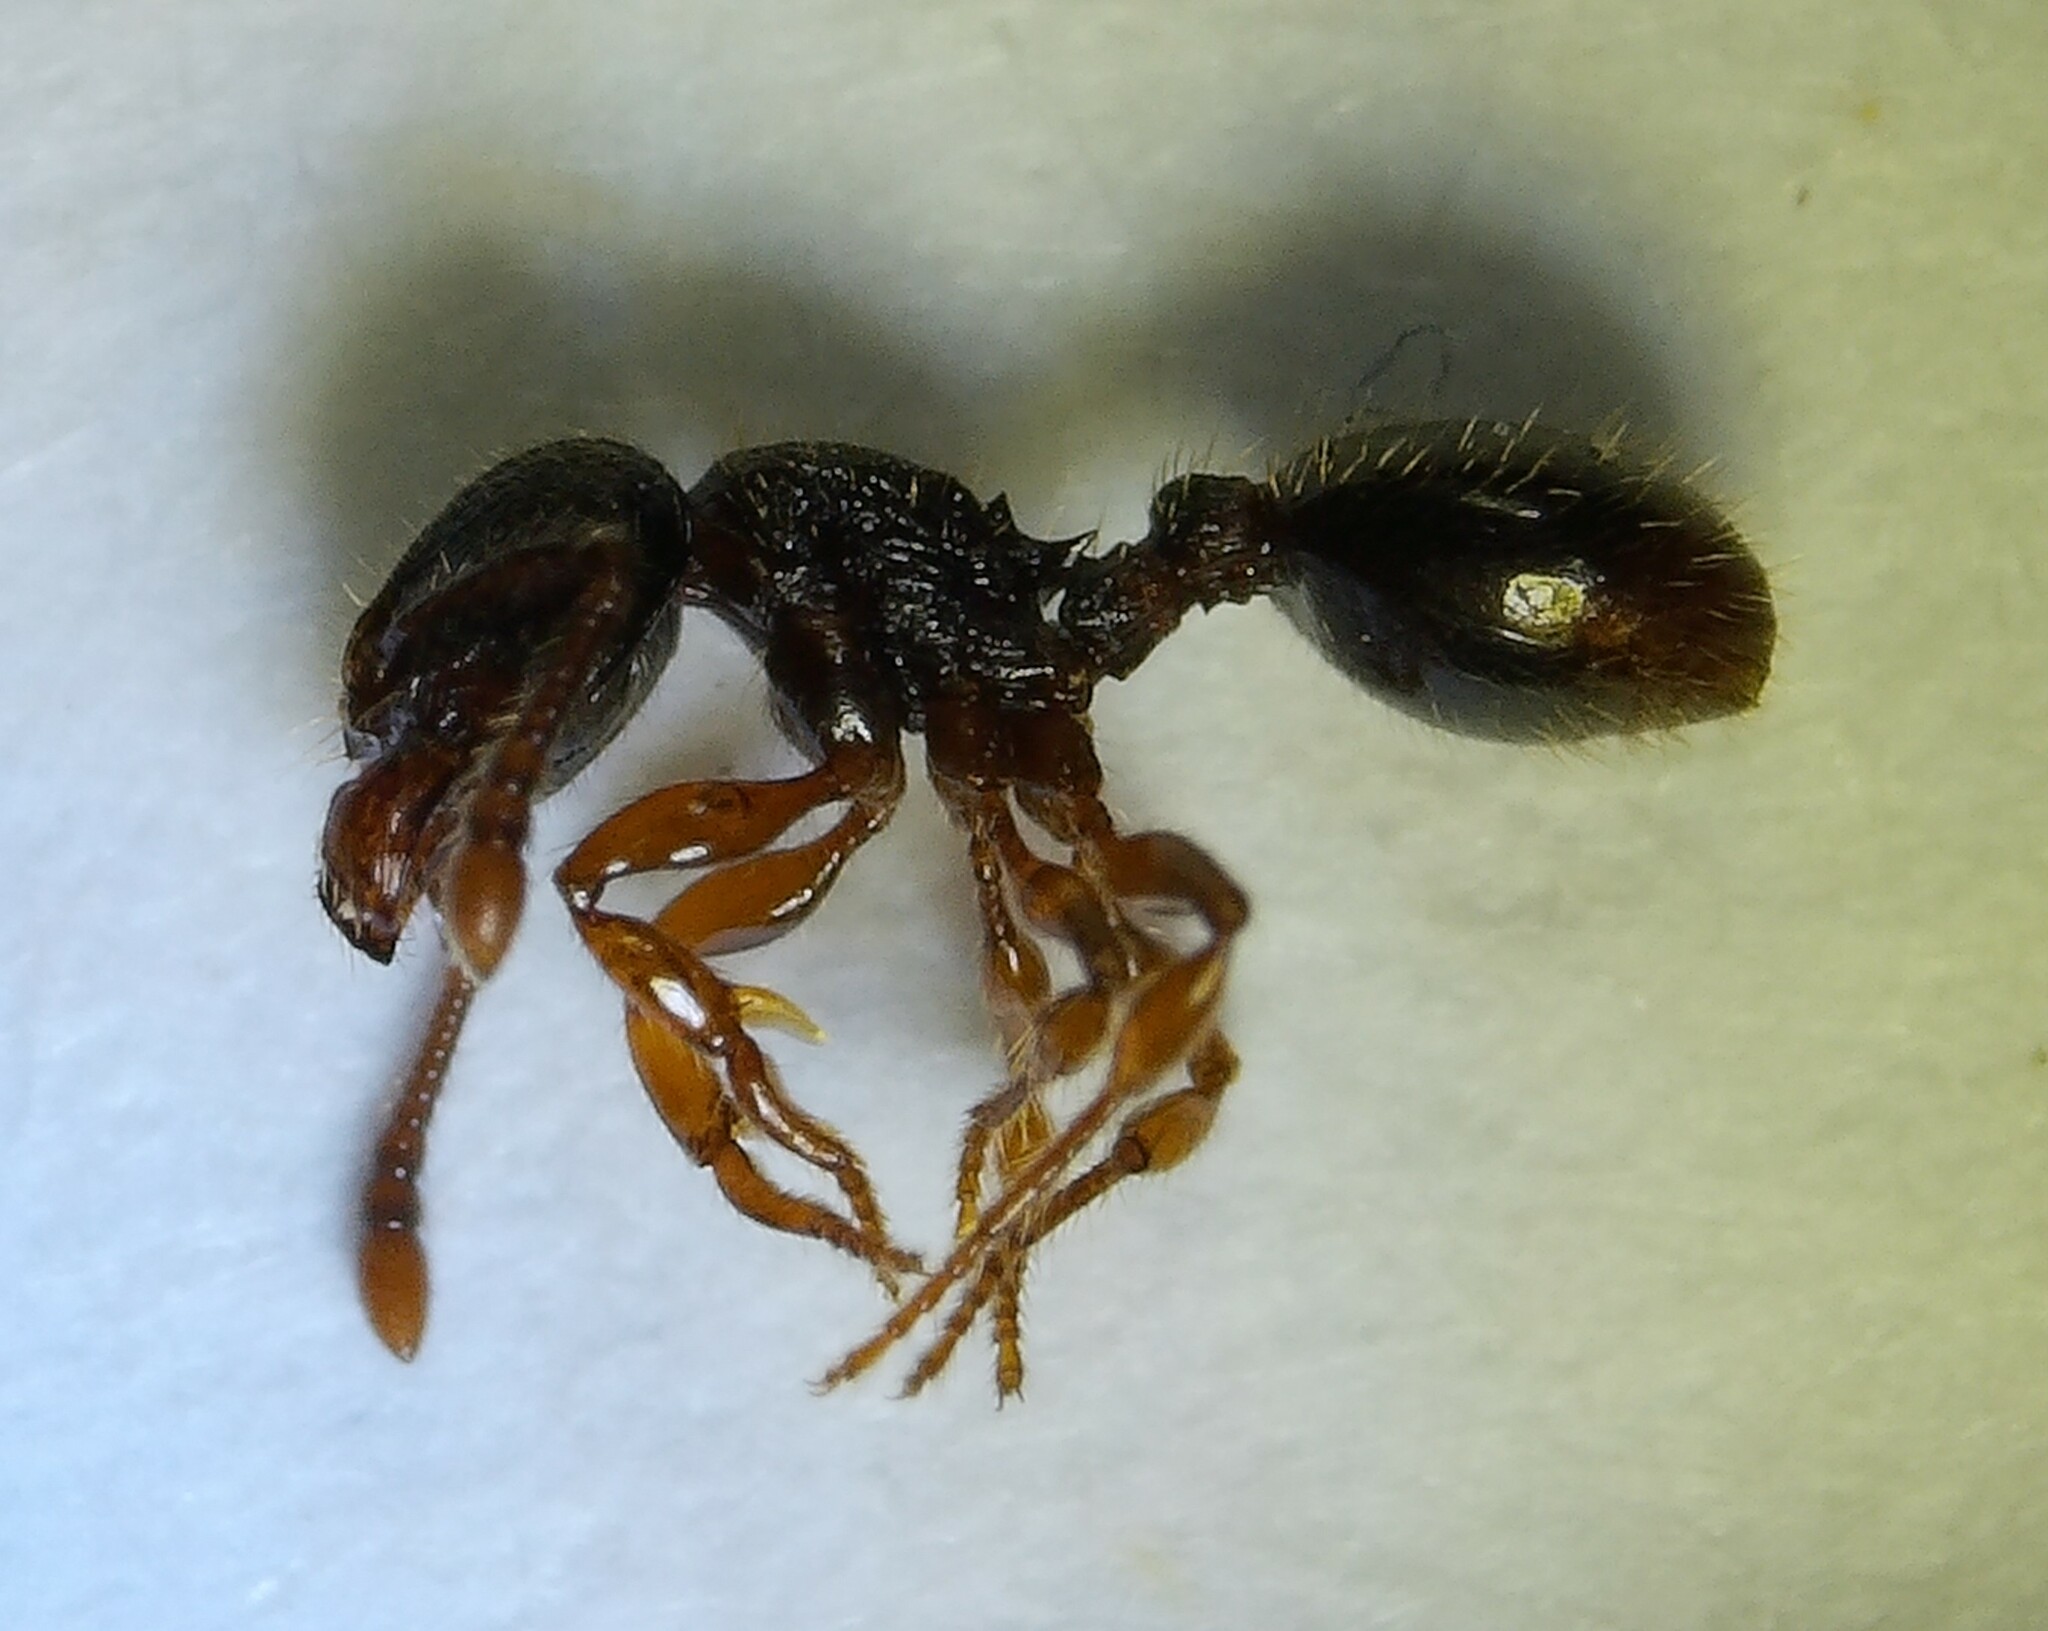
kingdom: Animalia
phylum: Arthropoda
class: Insecta
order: Hymenoptera
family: Formicidae
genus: Myrmecina
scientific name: Myrmecina americana
